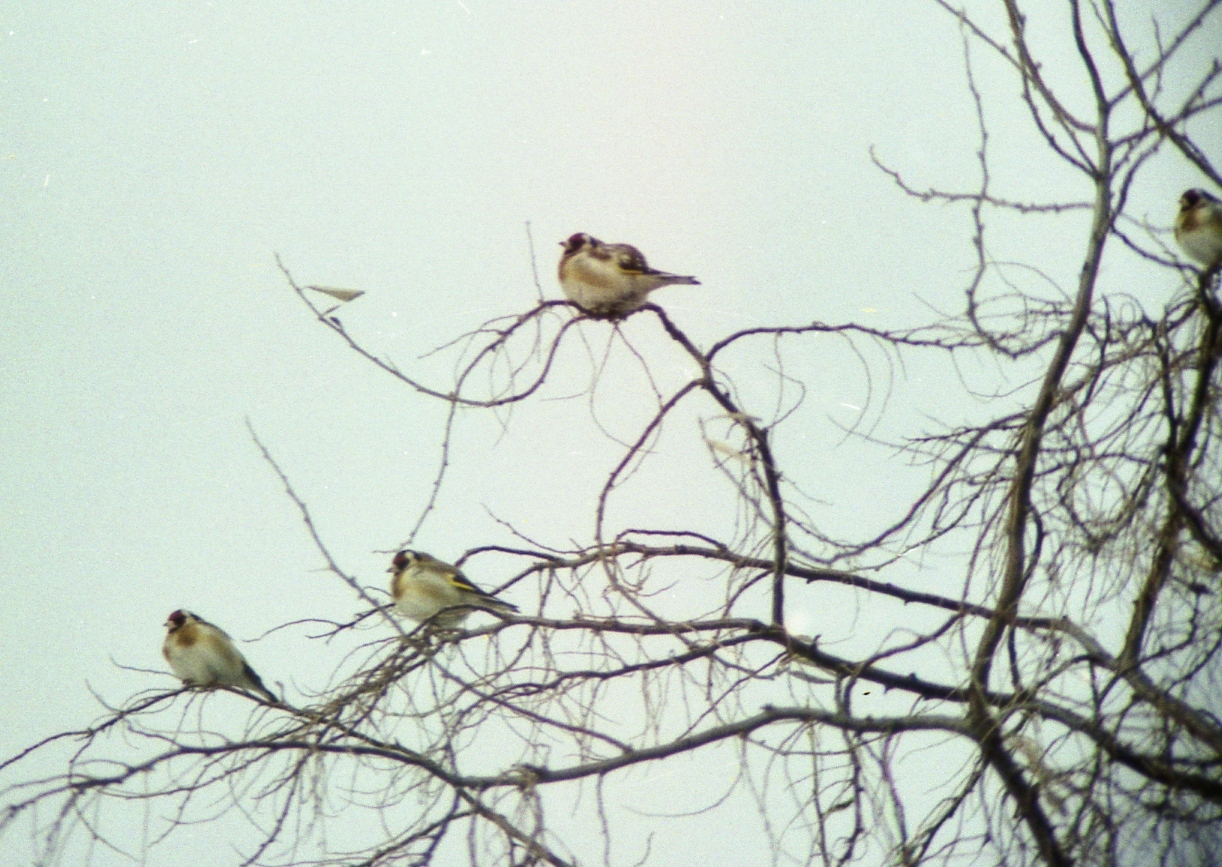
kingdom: Animalia
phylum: Chordata
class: Aves
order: Passeriformes
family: Fringillidae
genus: Carduelis
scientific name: Carduelis carduelis
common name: European goldfinch
